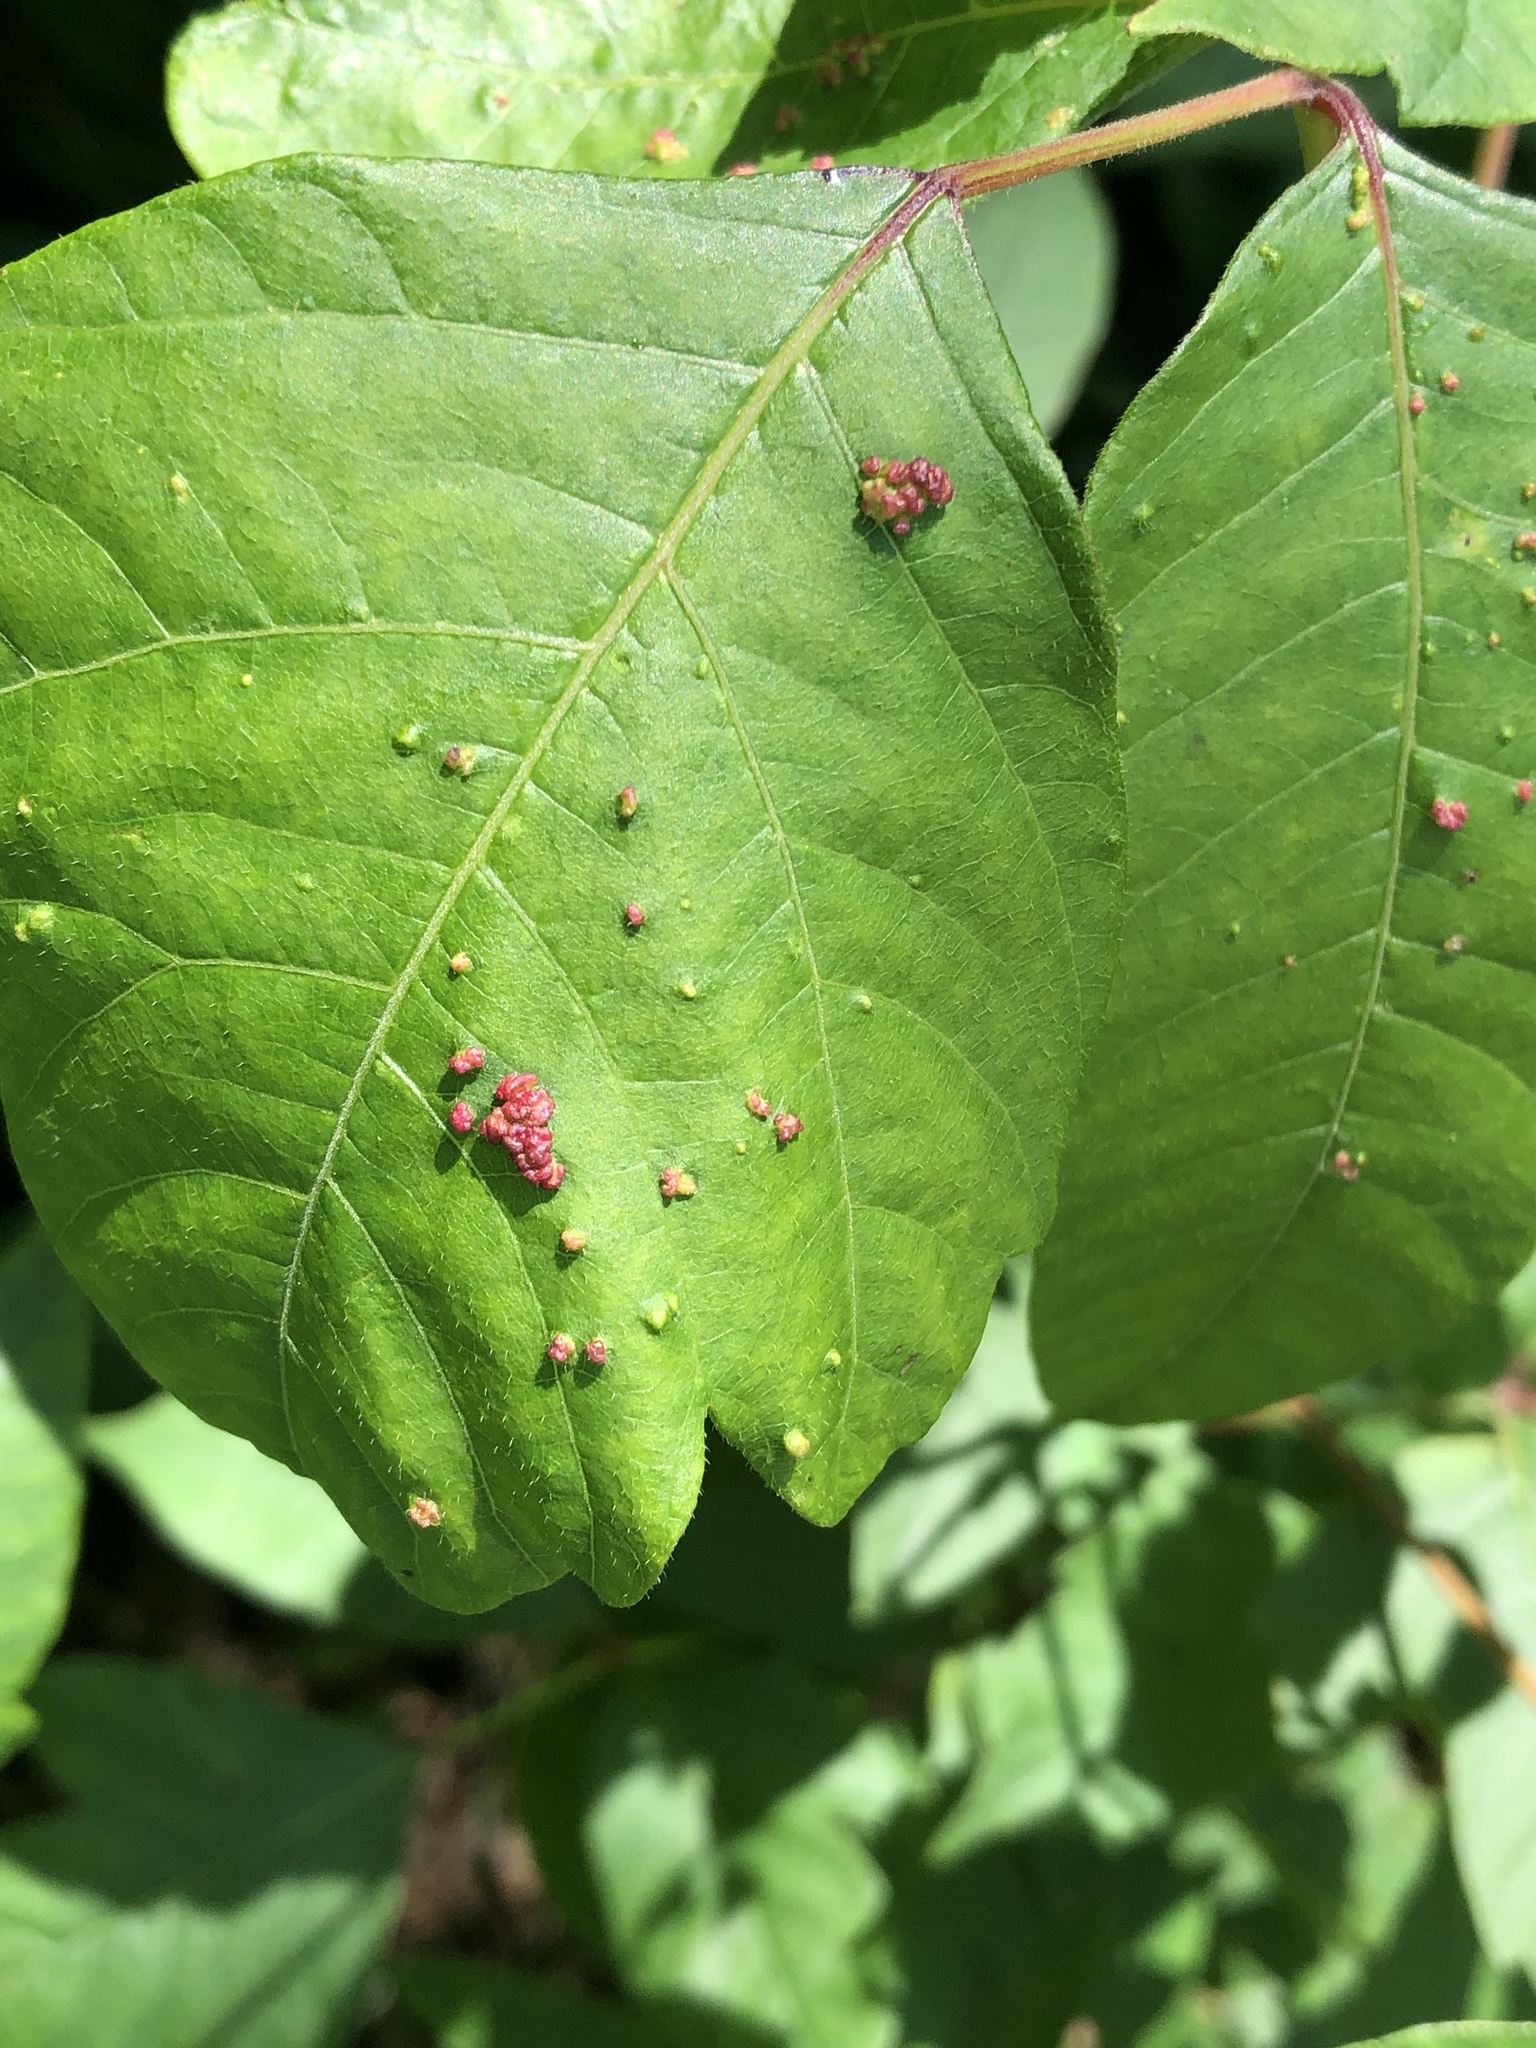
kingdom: Animalia
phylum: Arthropoda
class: Arachnida
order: Trombidiformes
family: Eriophyidae
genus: Aculops
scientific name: Aculops
